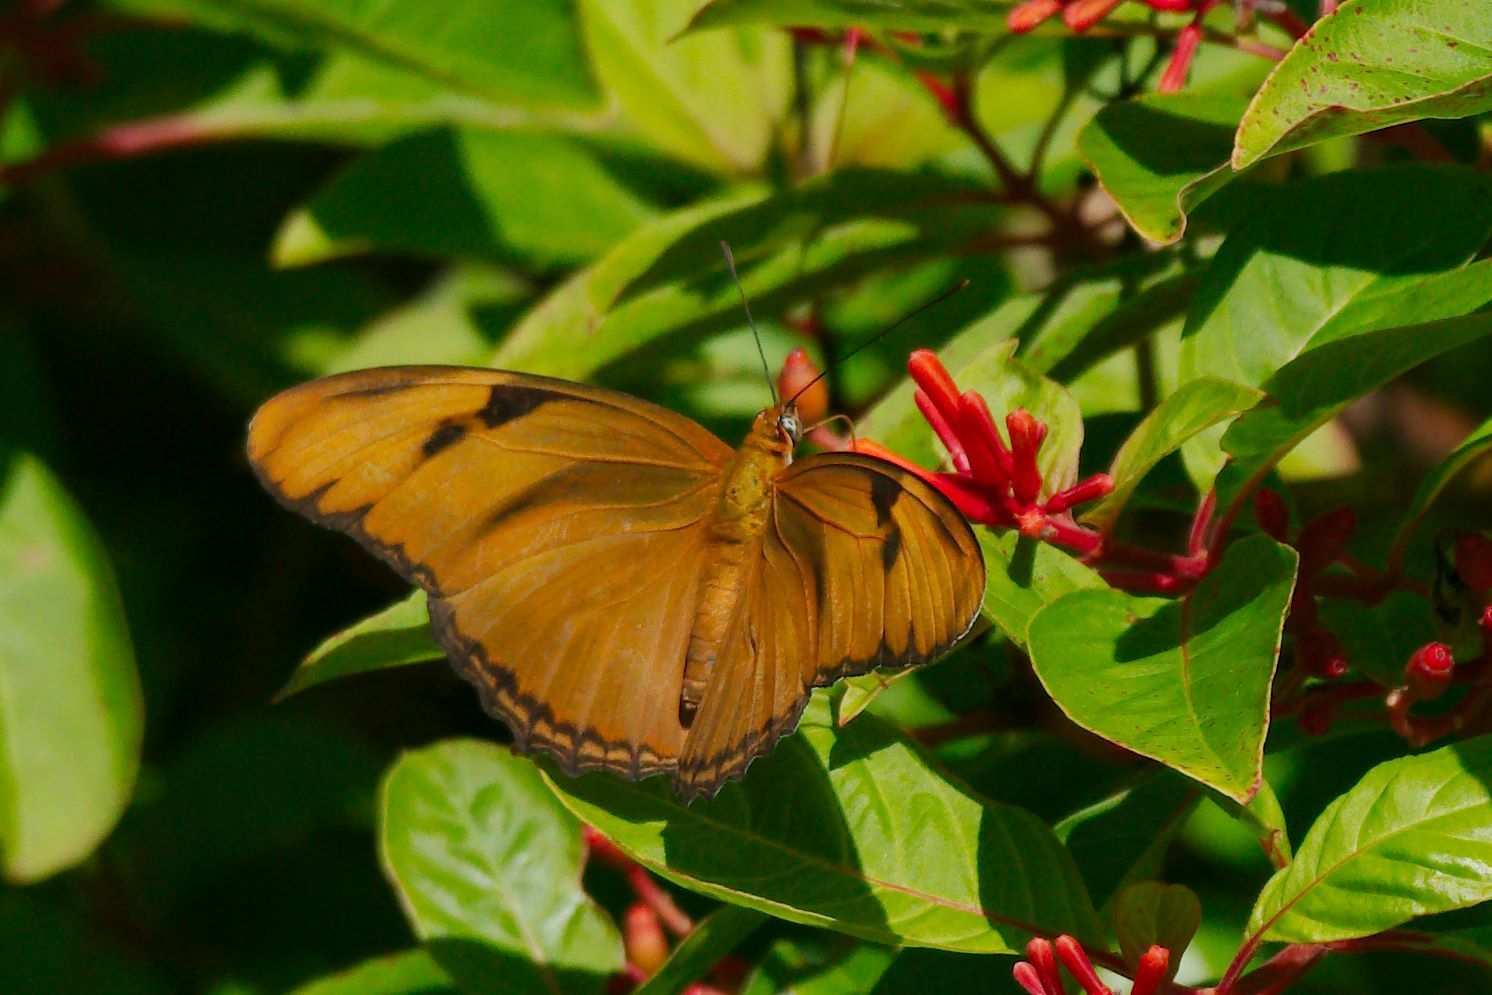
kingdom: Animalia
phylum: Arthropoda
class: Insecta
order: Lepidoptera
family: Nymphalidae
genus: Dryas
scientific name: Dryas iulia
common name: Flambeau
